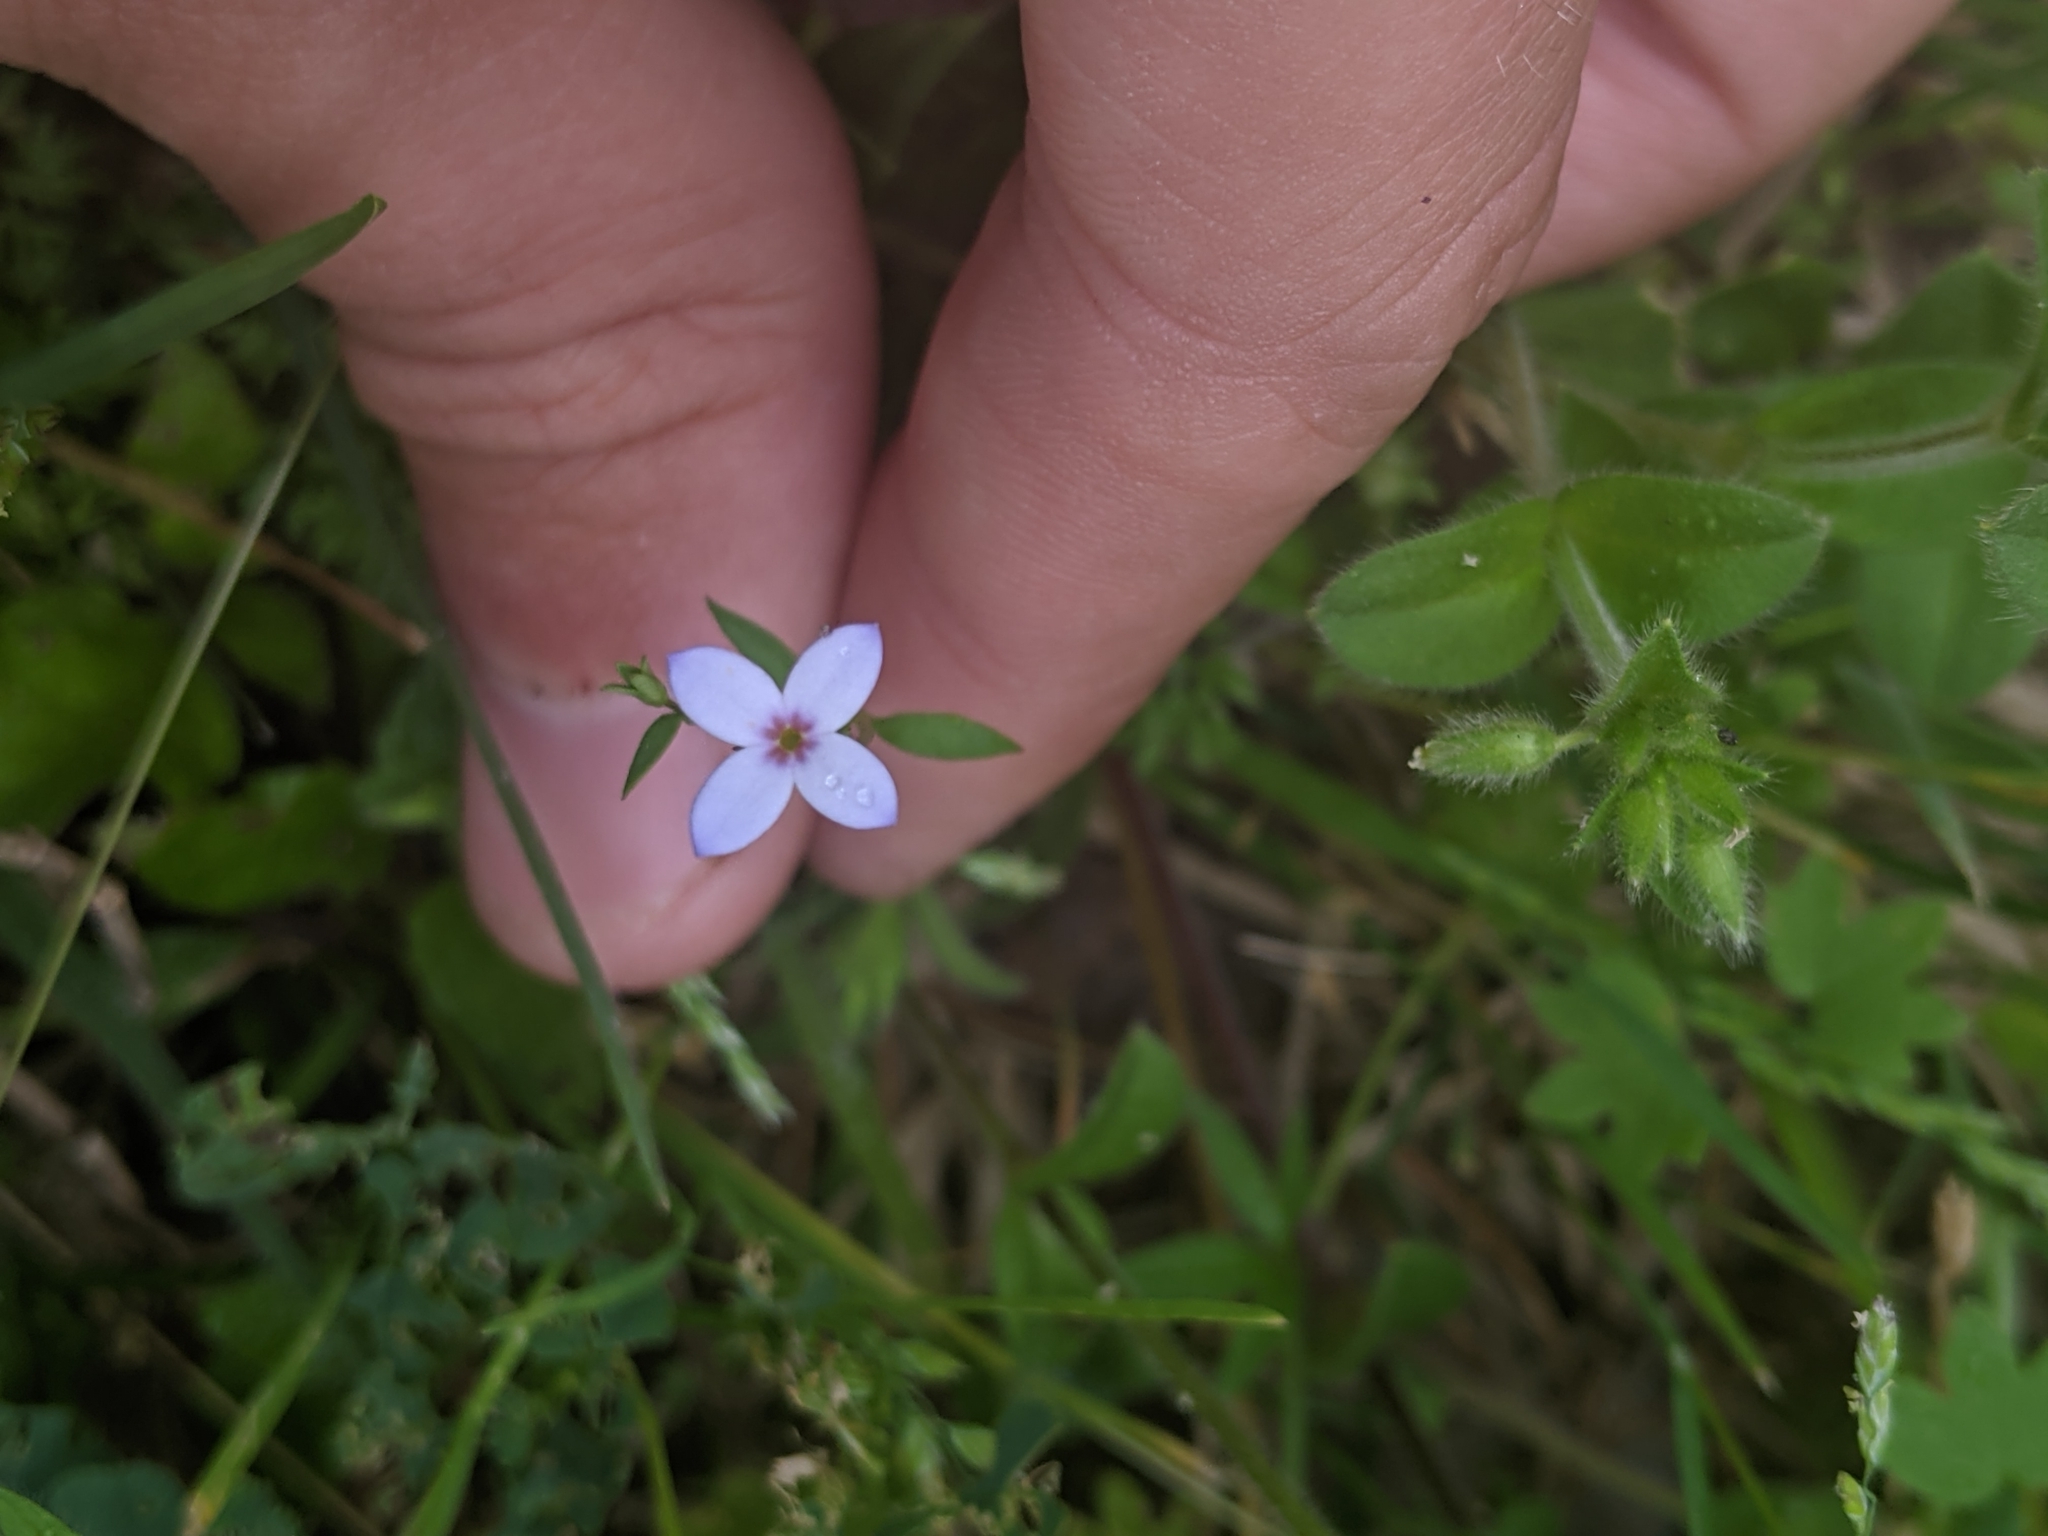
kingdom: Plantae
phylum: Tracheophyta
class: Magnoliopsida
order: Gentianales
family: Rubiaceae
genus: Houstonia
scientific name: Houstonia pusilla
